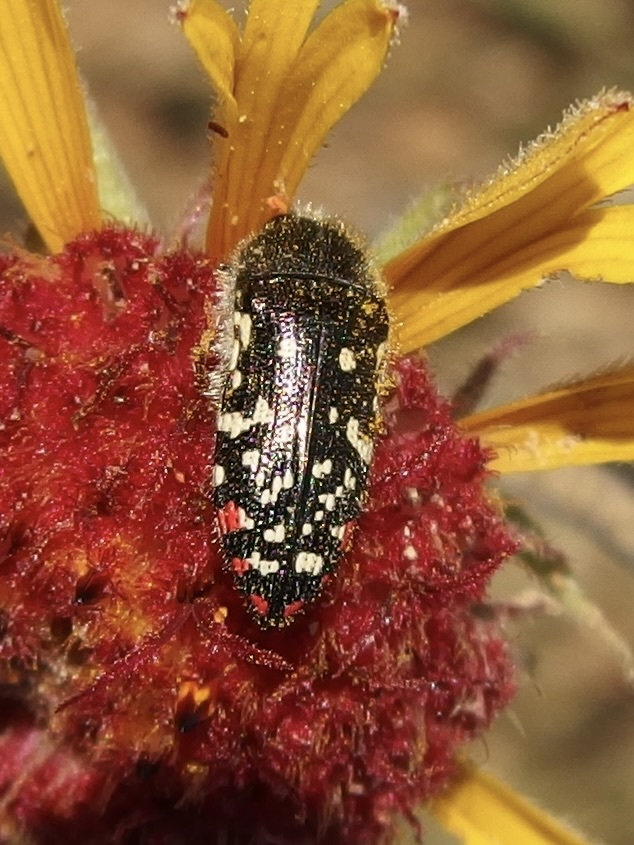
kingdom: Animalia
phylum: Arthropoda
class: Insecta
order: Coleoptera
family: Buprestidae
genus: Acmaeodera
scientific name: Acmaeodera rubronotata
